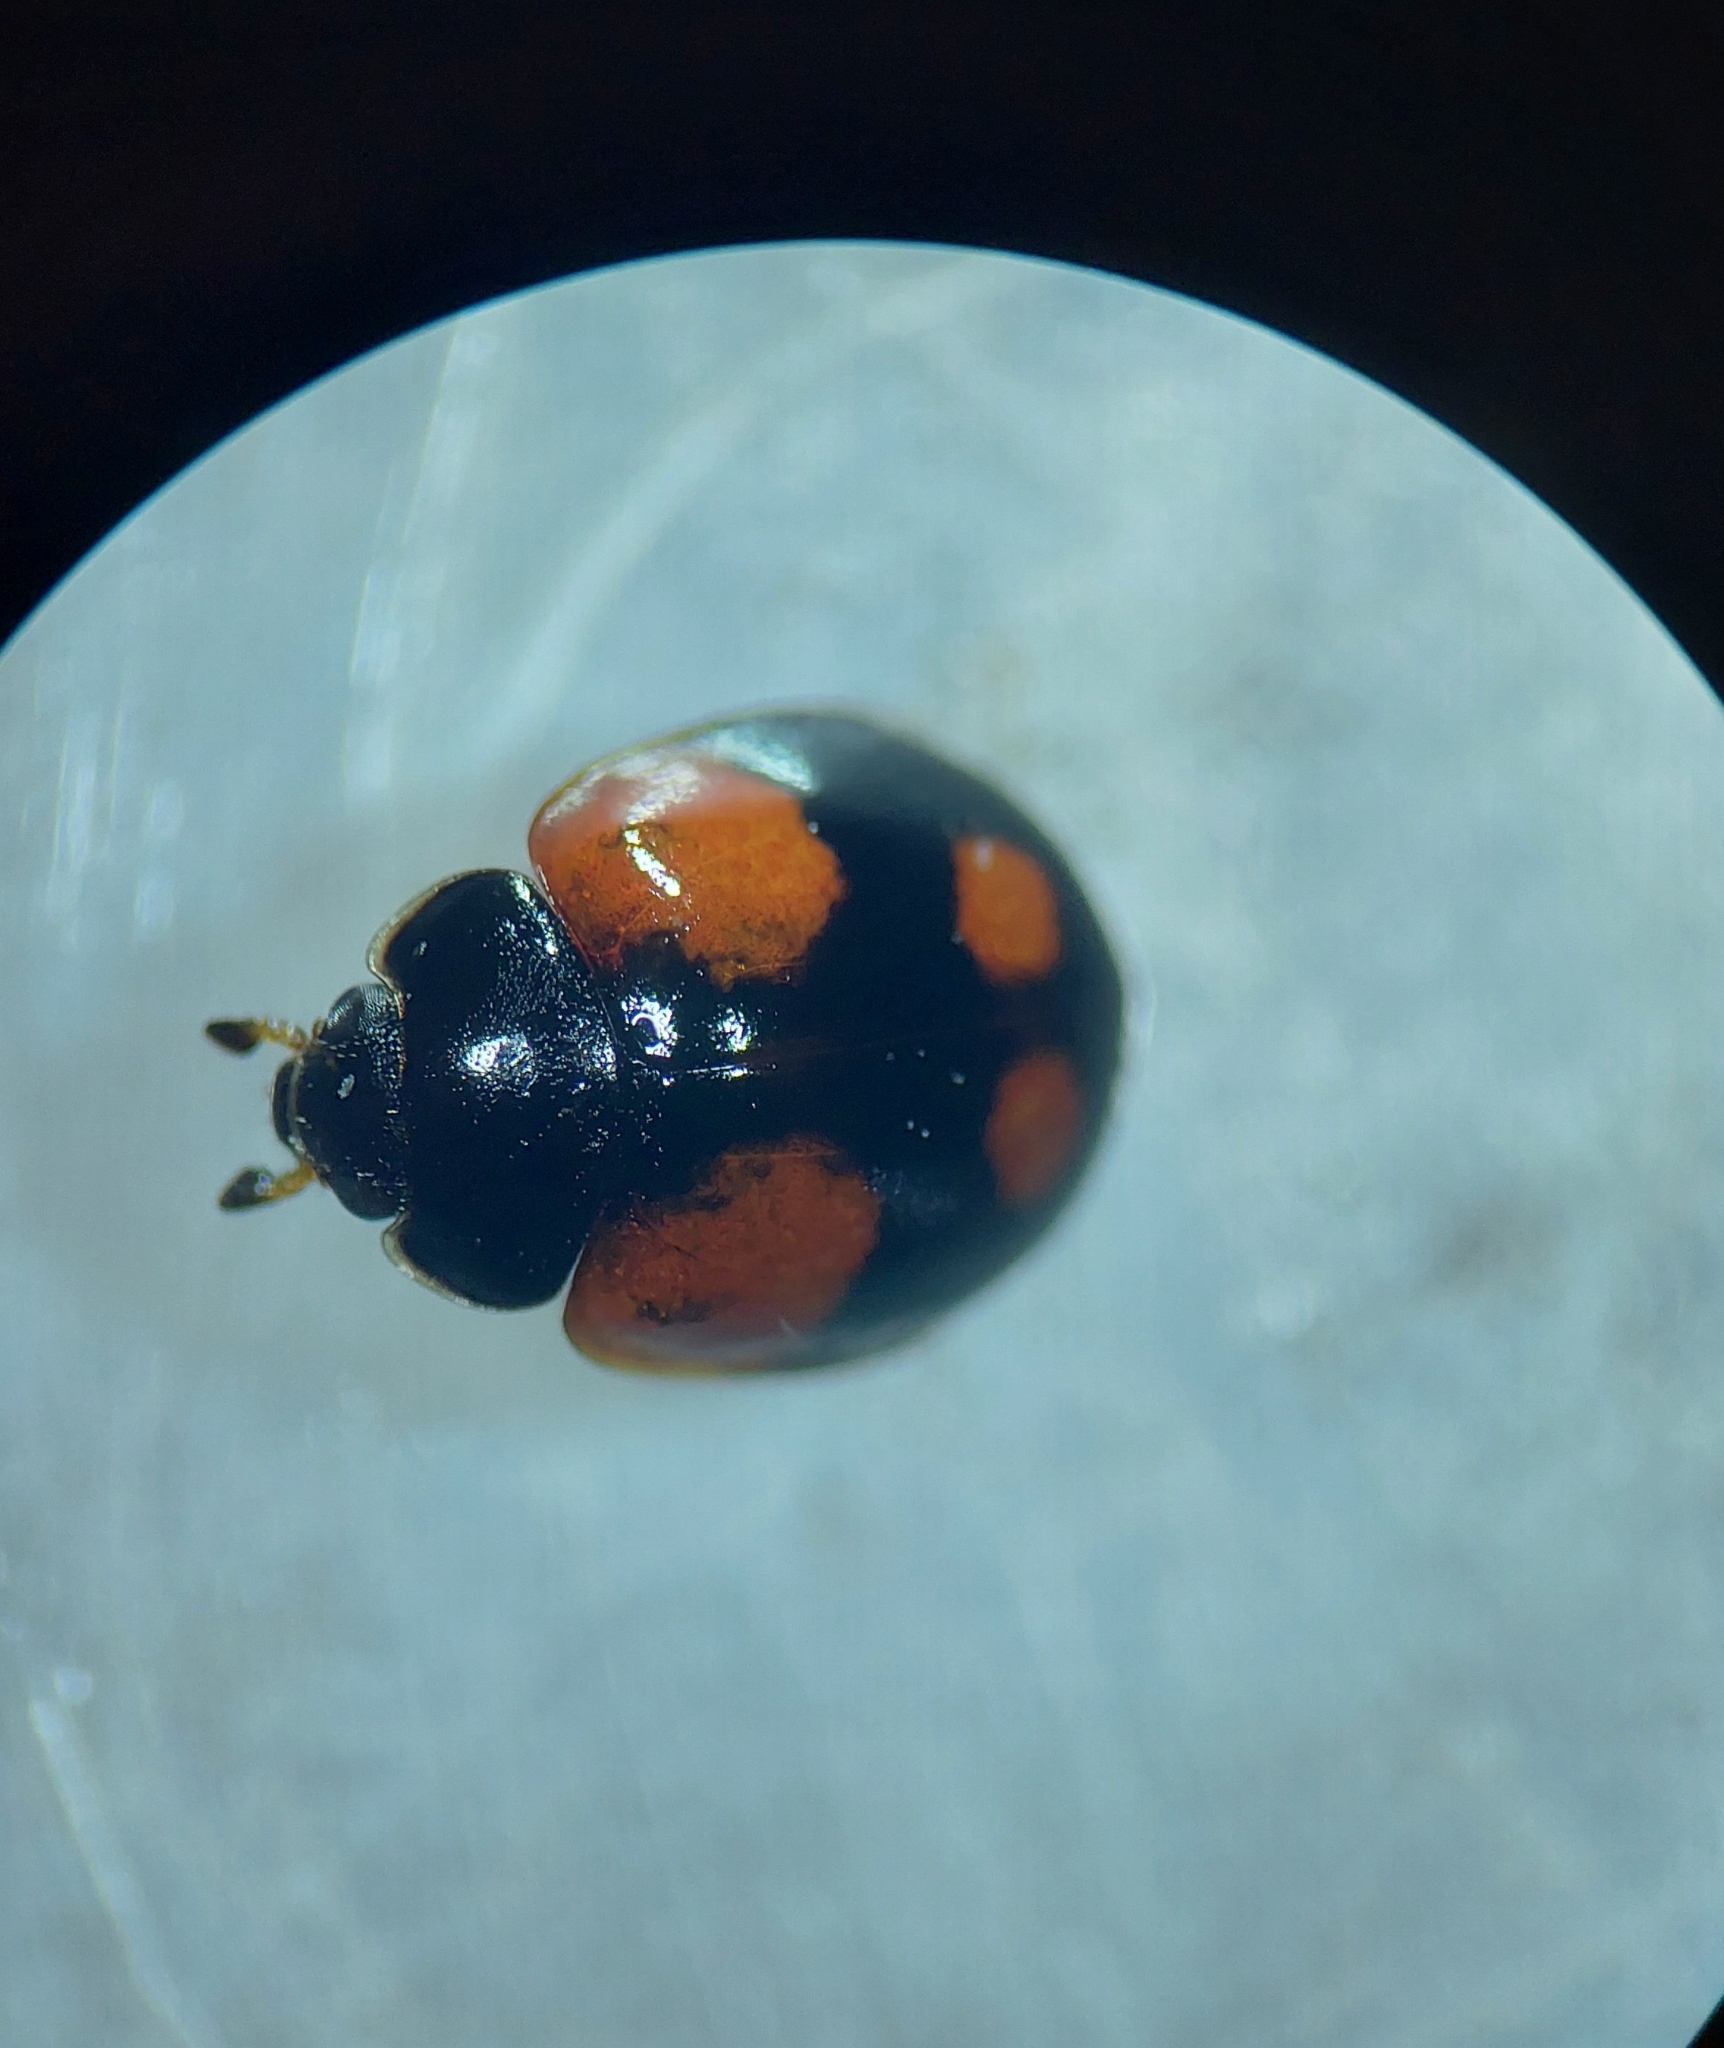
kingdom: Animalia
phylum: Arthropoda
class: Insecta
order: Coleoptera
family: Coccinellidae
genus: Adalia
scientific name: Adalia bipunctata
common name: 2-spot ladybird
